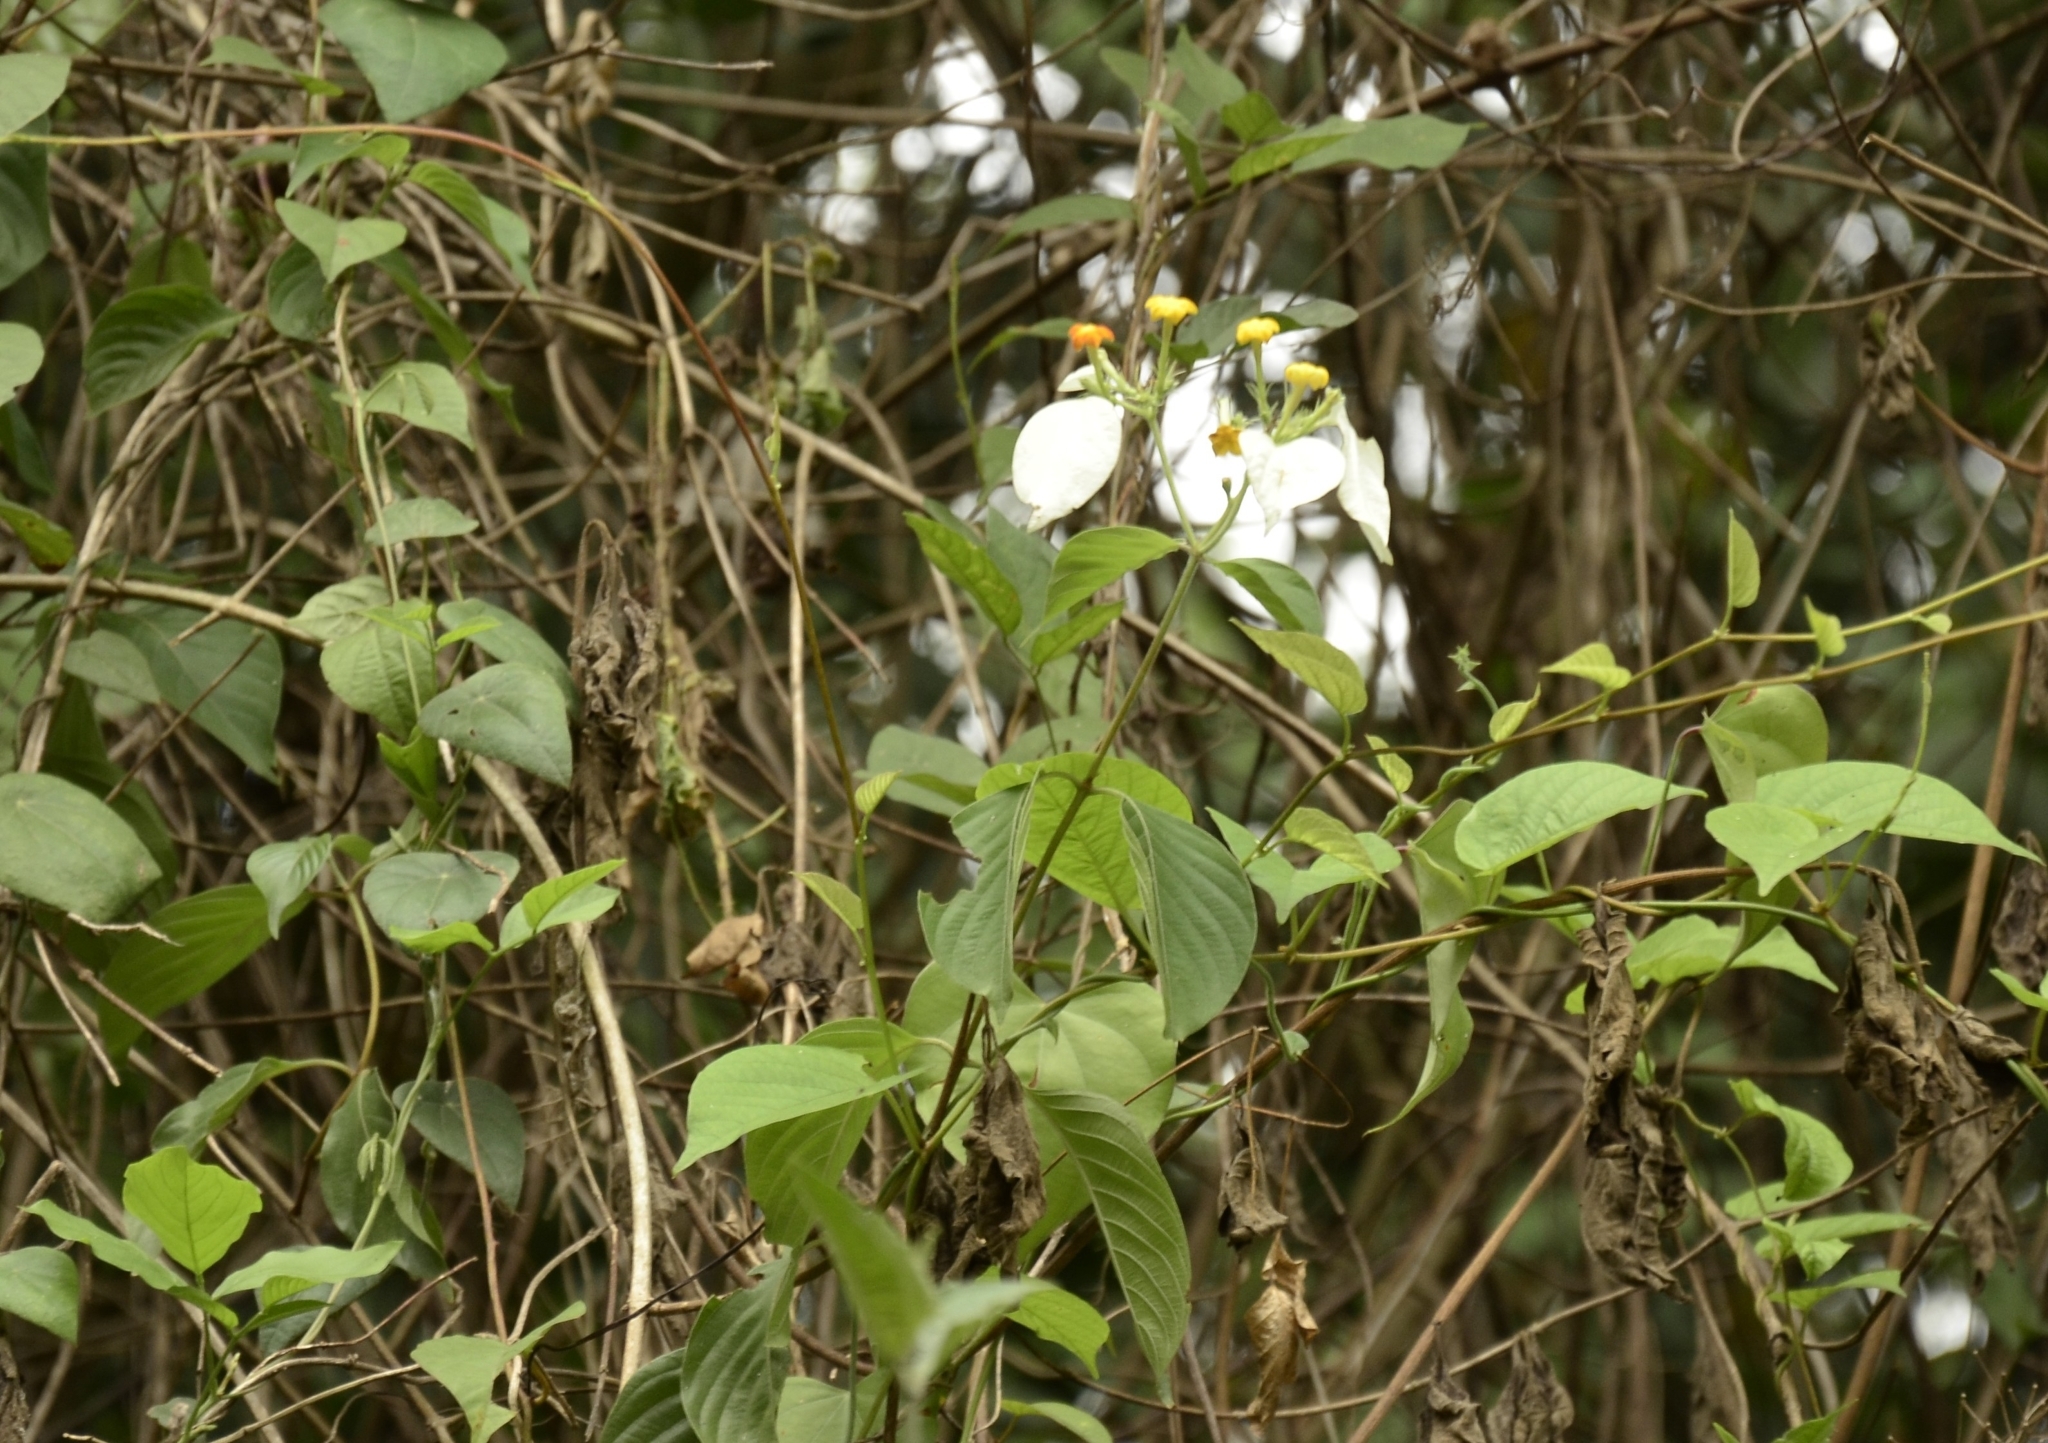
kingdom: Plantae
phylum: Tracheophyta
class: Magnoliopsida
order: Gentianales
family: Rubiaceae
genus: Mussaenda
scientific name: Mussaenda frondosa
